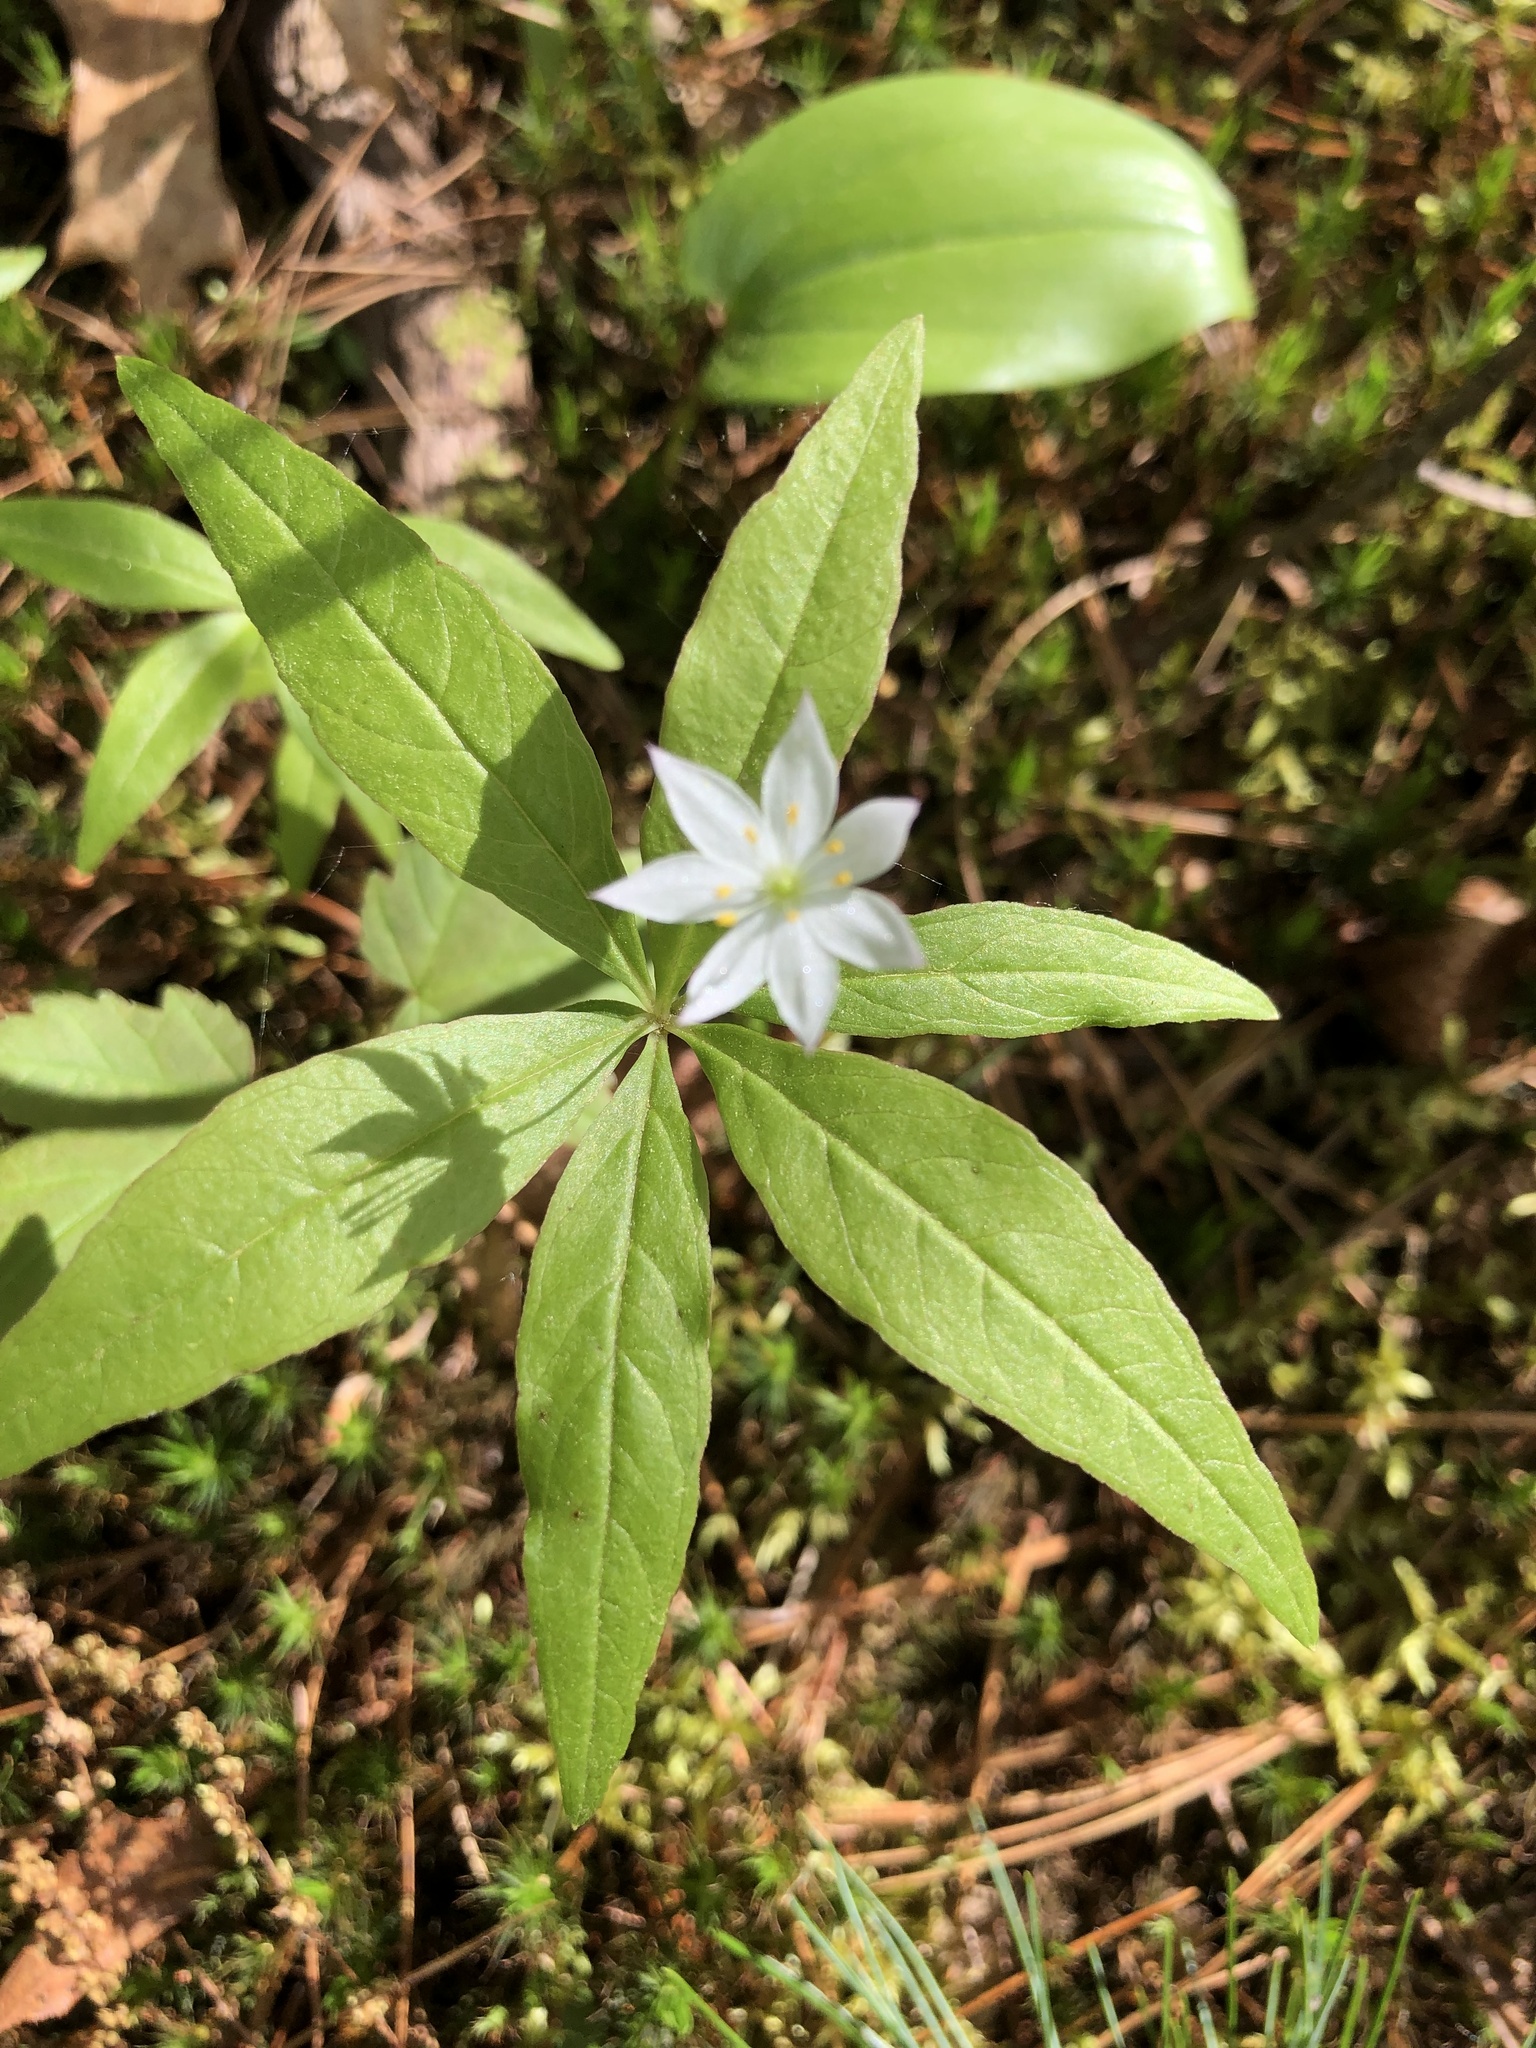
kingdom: Plantae
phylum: Tracheophyta
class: Magnoliopsida
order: Ericales
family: Primulaceae
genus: Lysimachia
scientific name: Lysimachia borealis
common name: American starflower
